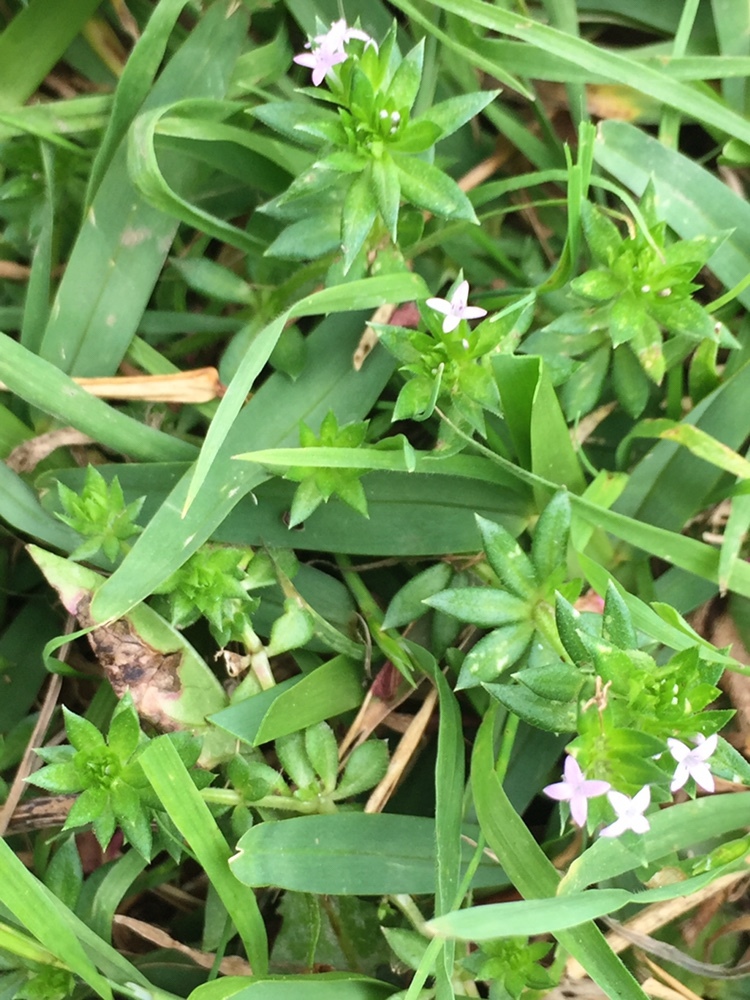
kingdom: Plantae
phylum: Tracheophyta
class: Magnoliopsida
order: Gentianales
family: Rubiaceae
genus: Sherardia
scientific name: Sherardia arvensis
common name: Field madder
